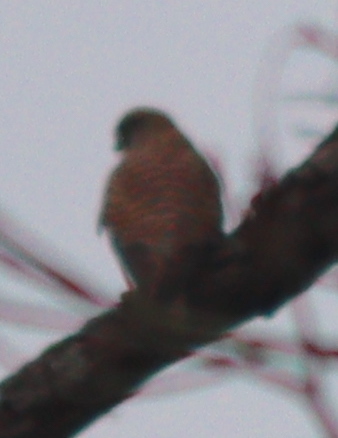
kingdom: Animalia
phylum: Chordata
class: Aves
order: Falconiformes
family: Falconidae
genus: Falco
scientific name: Falco tinnunculus
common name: Common kestrel
